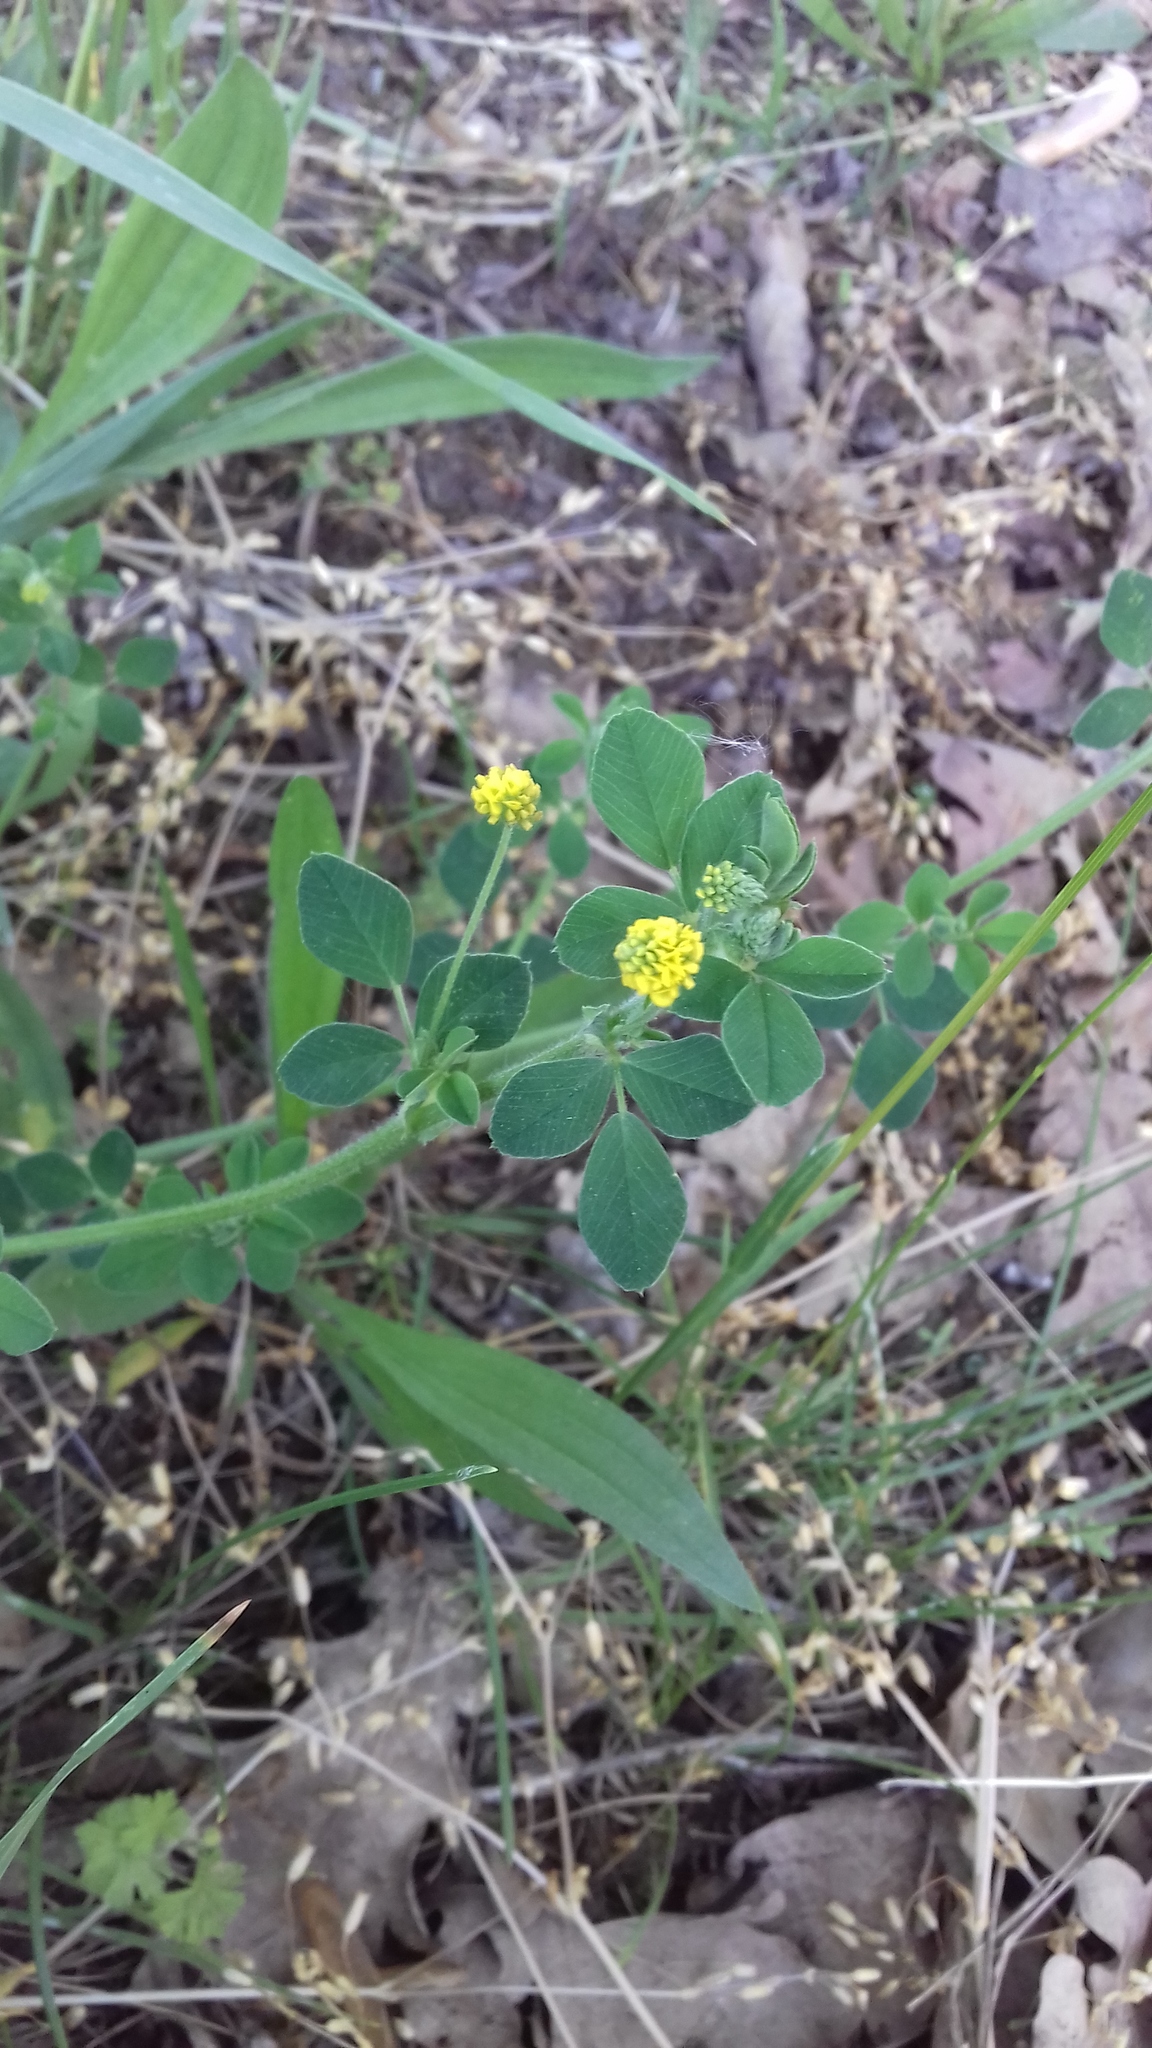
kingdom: Plantae
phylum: Tracheophyta
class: Magnoliopsida
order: Fabales
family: Fabaceae
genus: Medicago
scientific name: Medicago minima
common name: Little bur-clover
